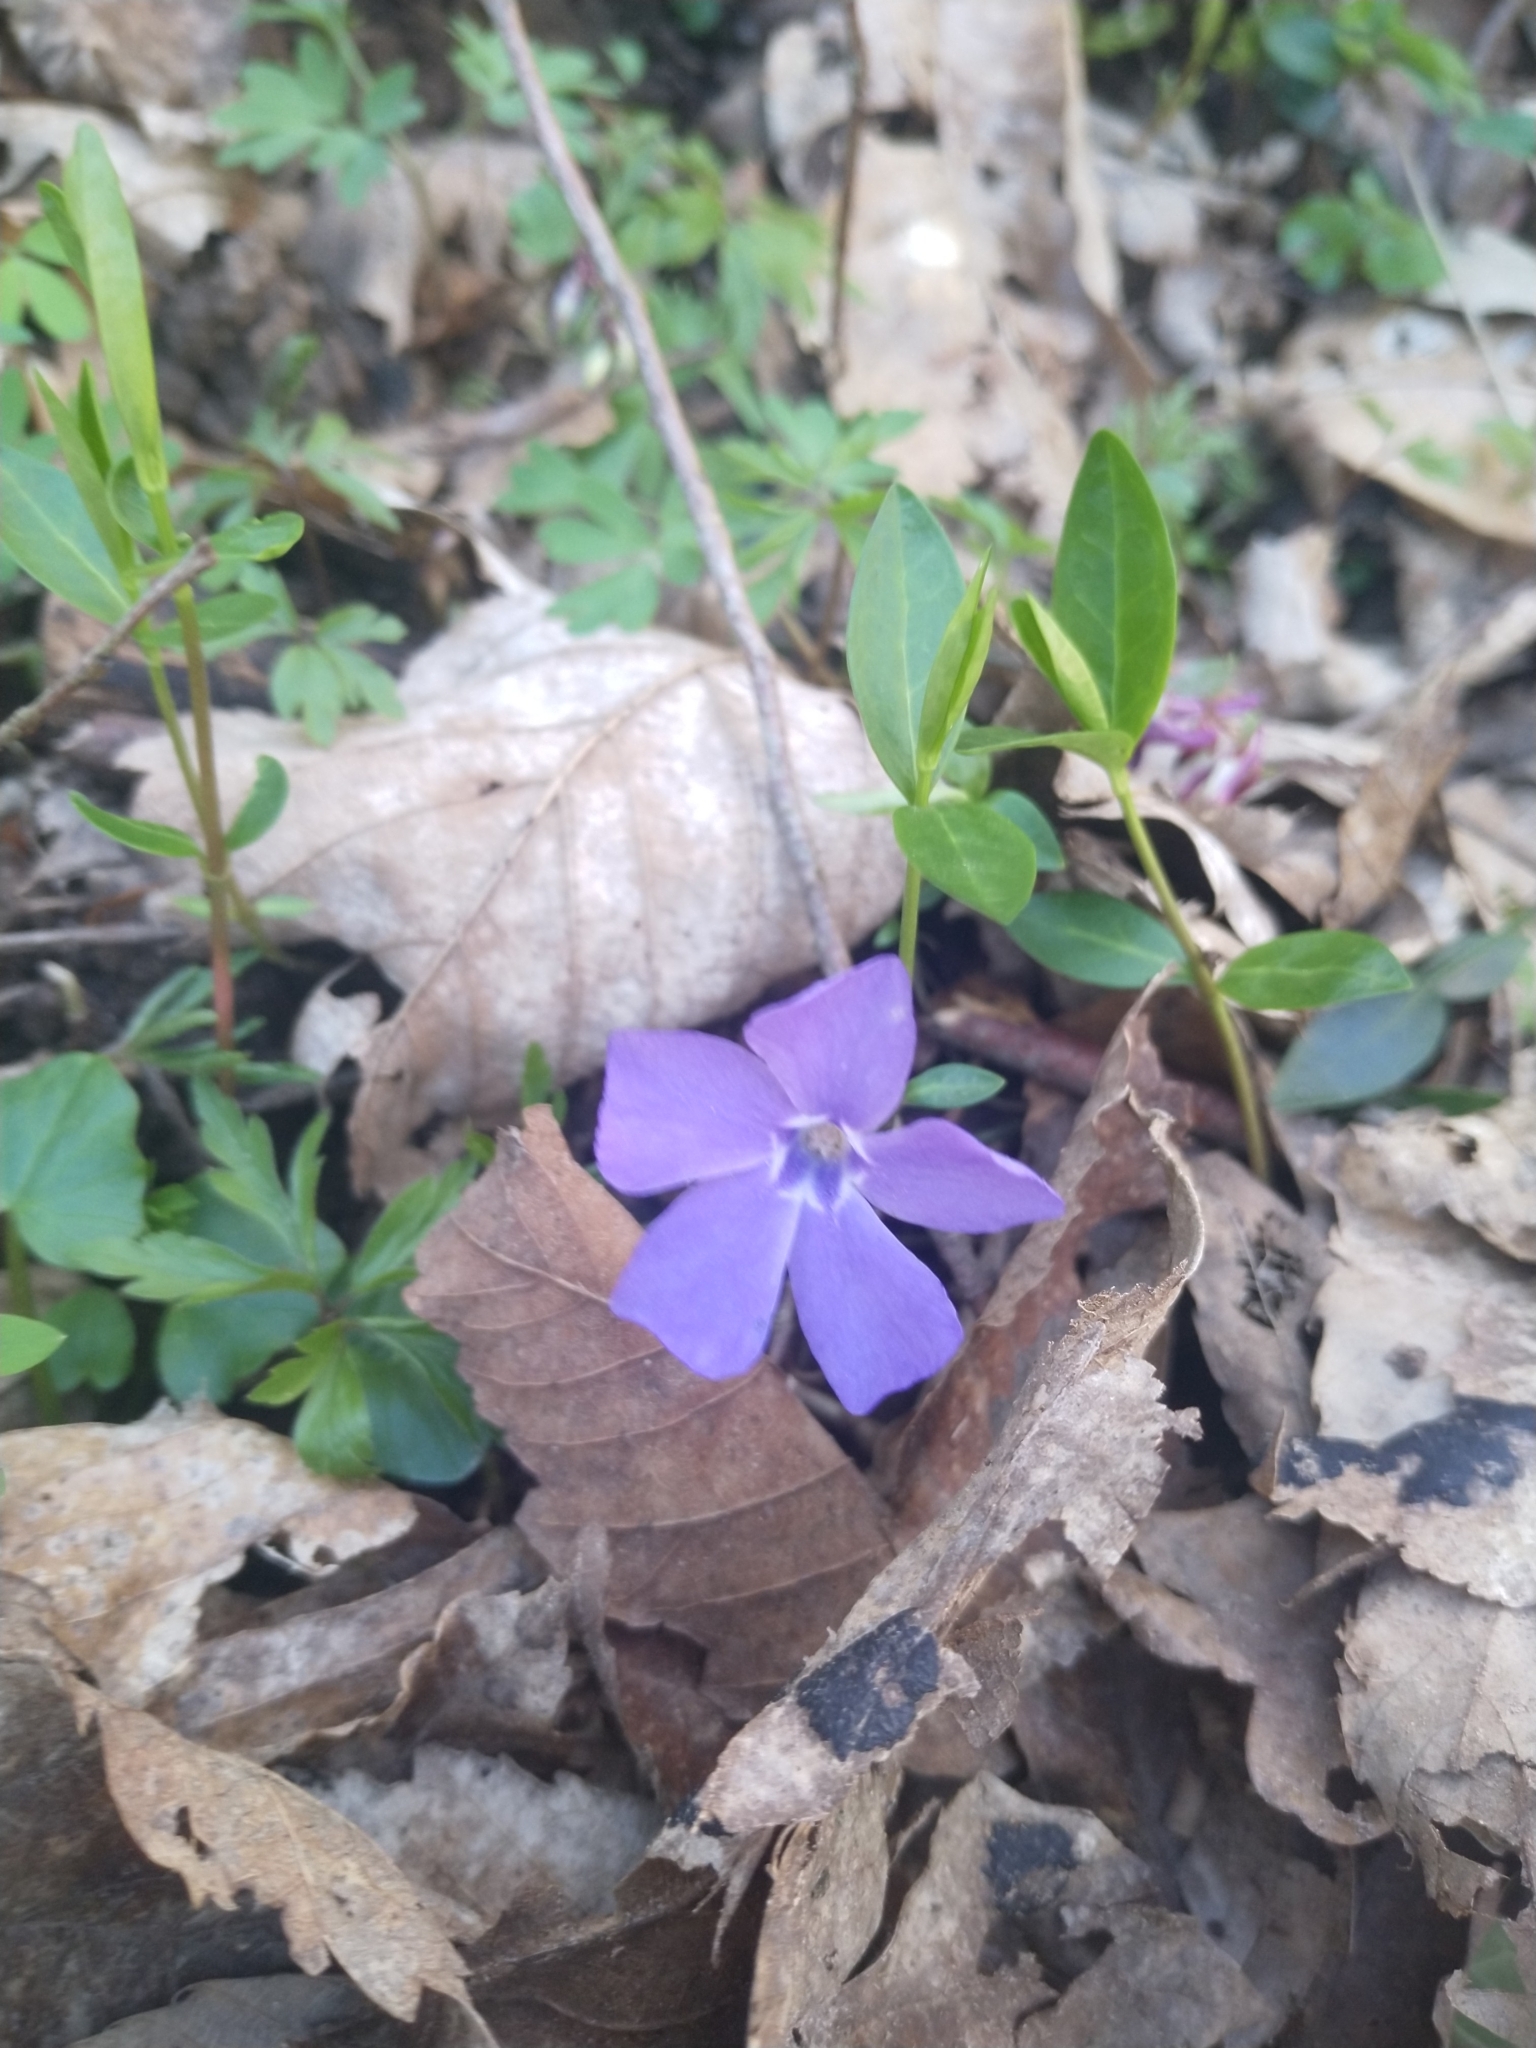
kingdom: Plantae
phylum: Tracheophyta
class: Magnoliopsida
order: Gentianales
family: Apocynaceae
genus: Vinca
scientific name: Vinca minor
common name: Lesser periwinkle
